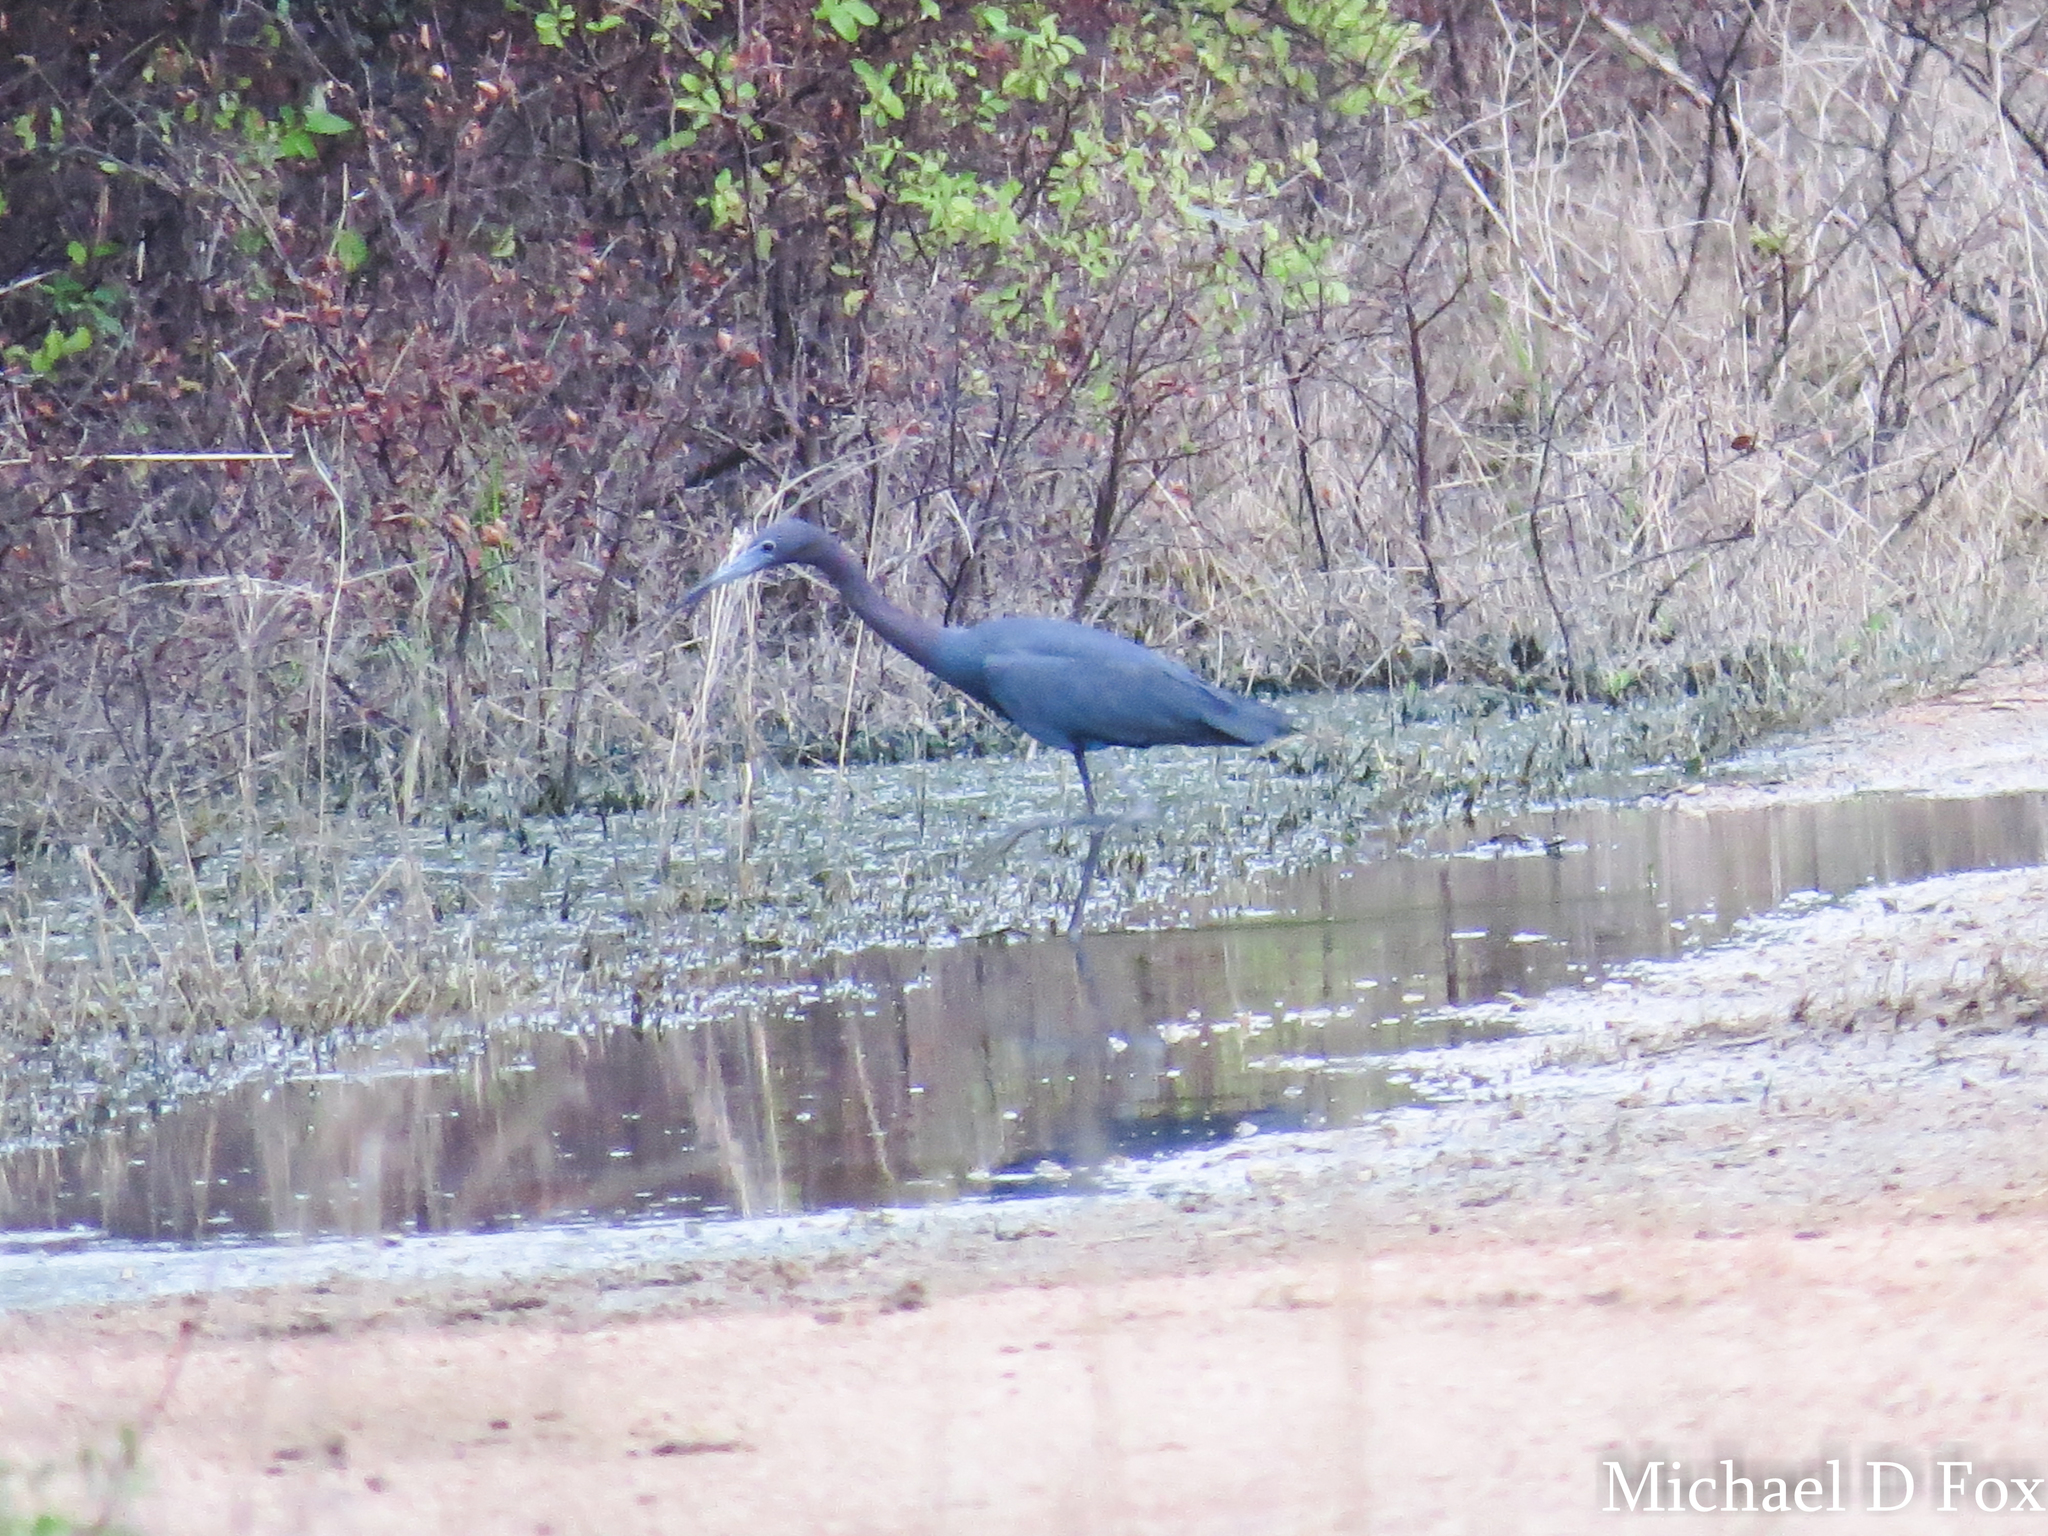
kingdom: Animalia
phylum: Chordata
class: Aves
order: Pelecaniformes
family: Ardeidae
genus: Egretta
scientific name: Egretta caerulea
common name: Little blue heron
